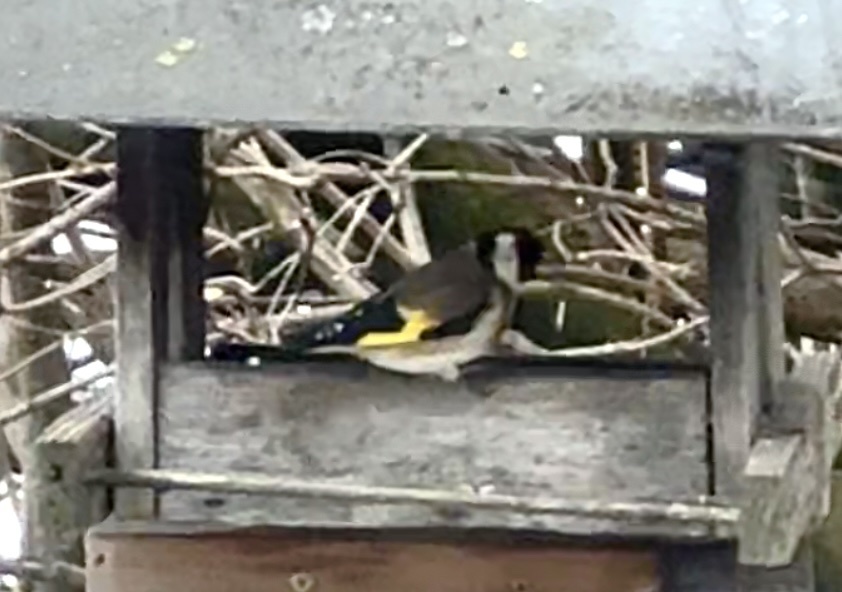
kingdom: Animalia
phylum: Chordata
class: Aves
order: Passeriformes
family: Fringillidae
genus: Carduelis
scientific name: Carduelis carduelis
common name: European goldfinch
